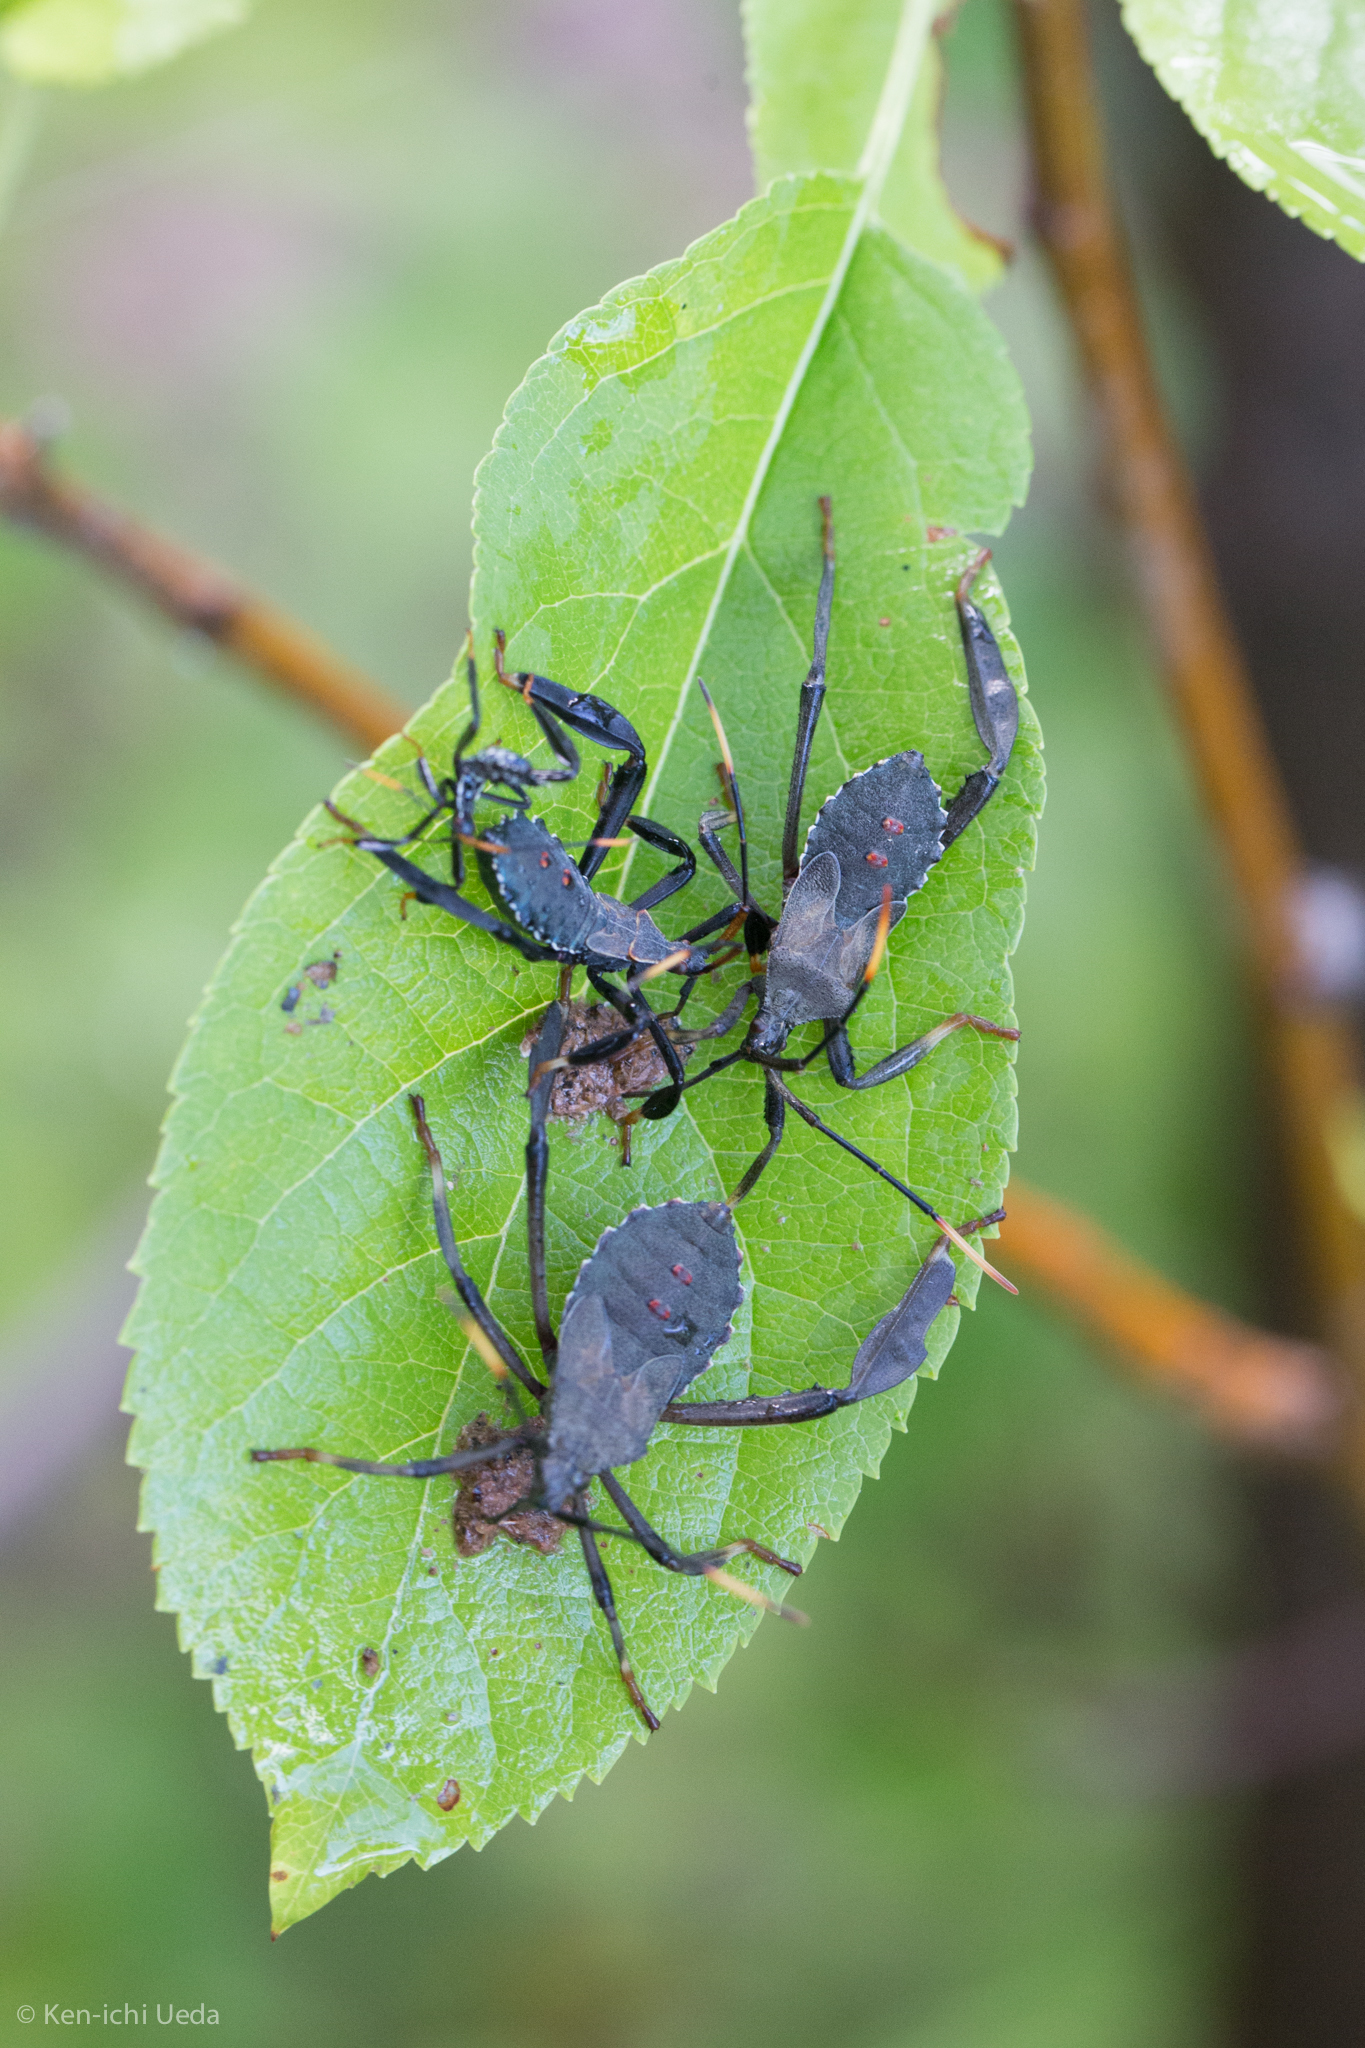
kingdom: Animalia
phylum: Arthropoda
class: Insecta
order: Hemiptera
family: Coreidae
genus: Acanthocephala
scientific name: Acanthocephala thomasi
